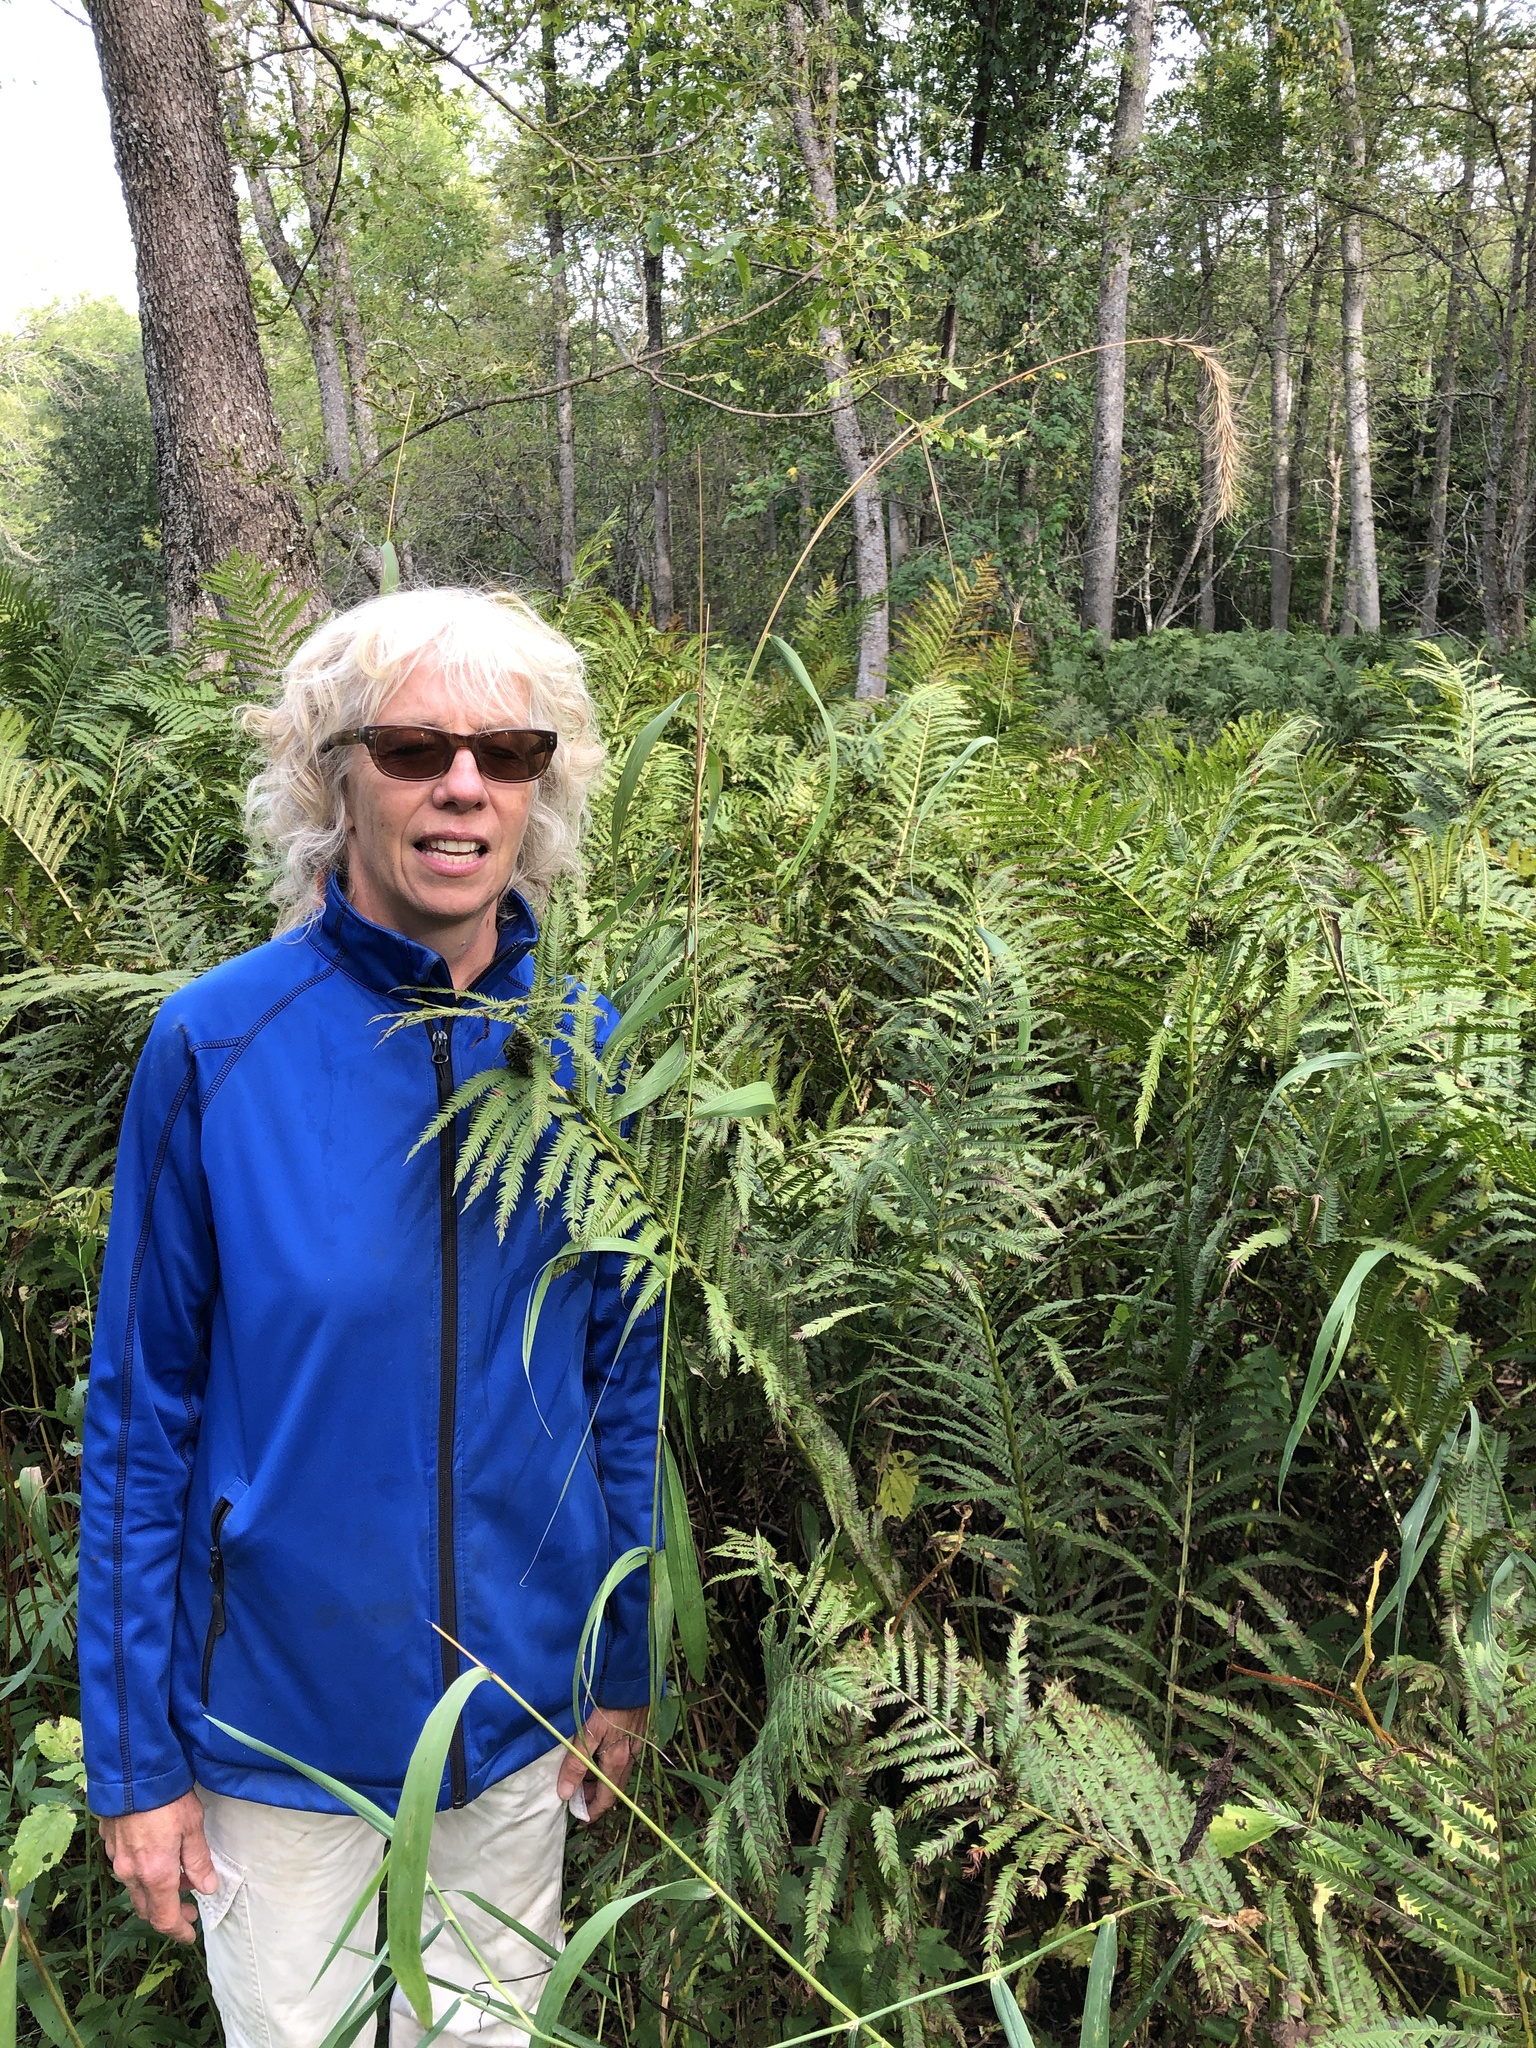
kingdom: Plantae
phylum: Tracheophyta
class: Liliopsida
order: Poales
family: Poaceae
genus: Elymus
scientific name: Elymus canadensis
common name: Canada wild rye
